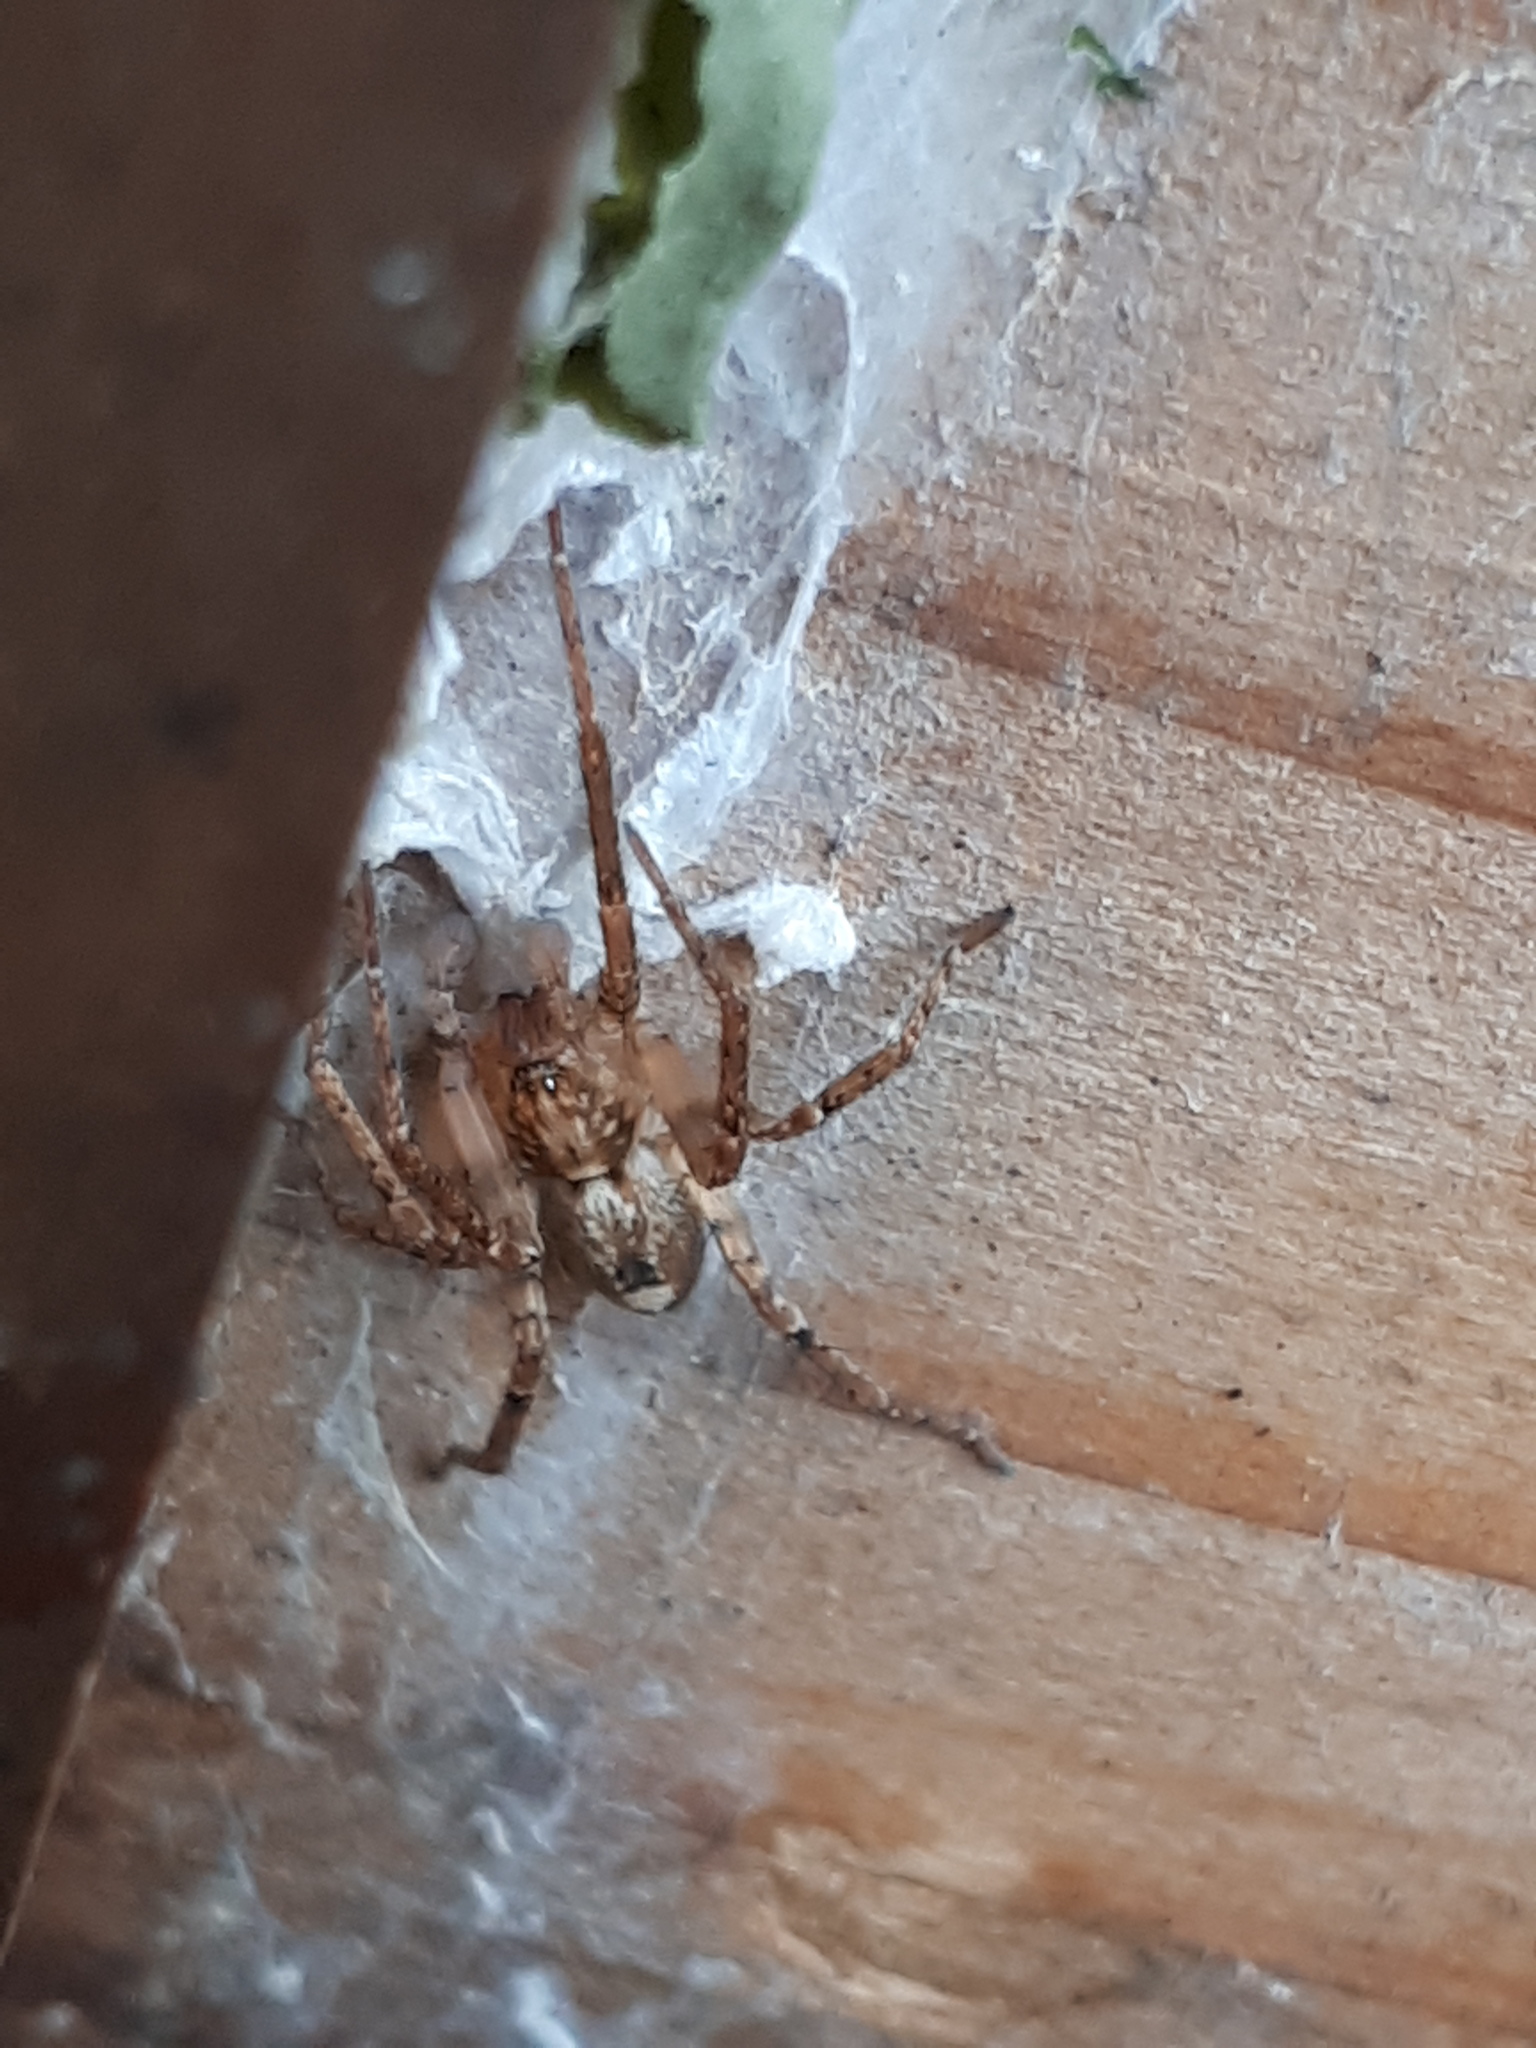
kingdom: Animalia
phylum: Arthropoda
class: Arachnida
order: Araneae
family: Anyphaenidae
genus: Anyphaena
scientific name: Anyphaena accentuata
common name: Buzzing spider
